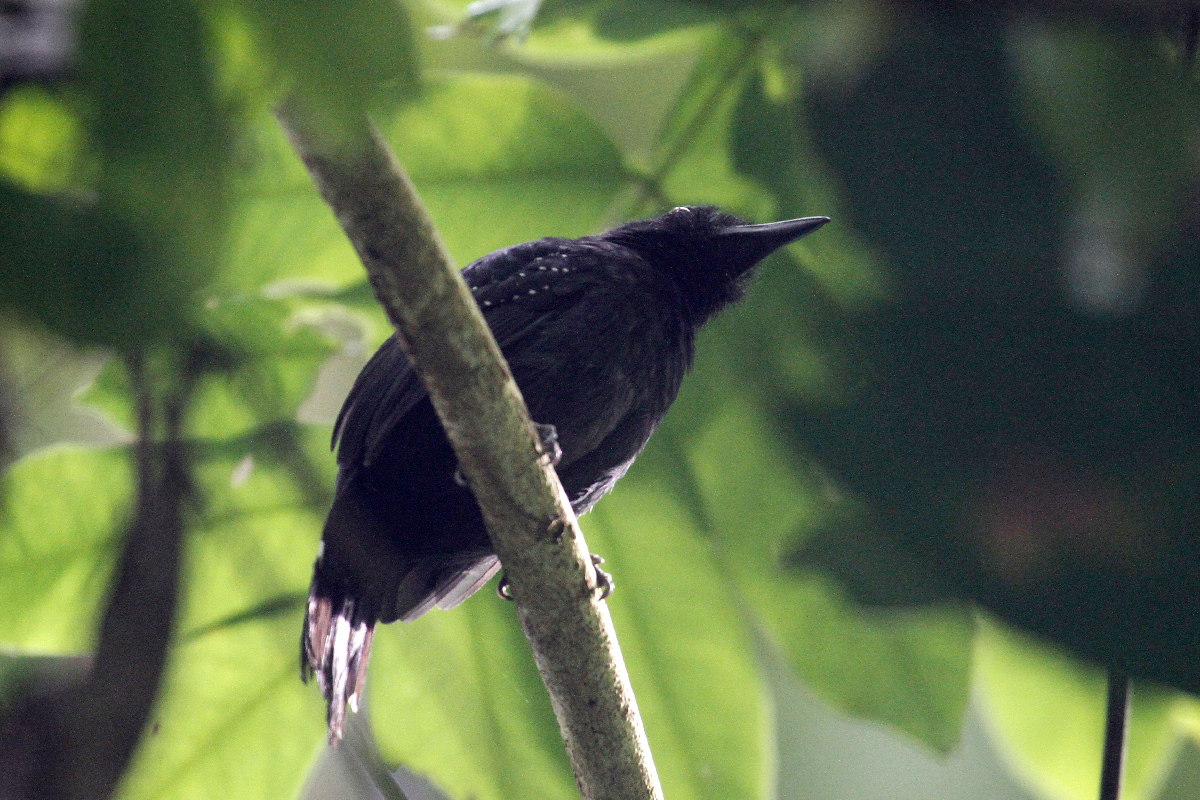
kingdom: Animalia
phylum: Chordata
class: Aves
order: Passeriformes
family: Thamnophilidae
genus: Thamnophilus
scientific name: Thamnophilus bridgesi
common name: Black-hooded antshrike
